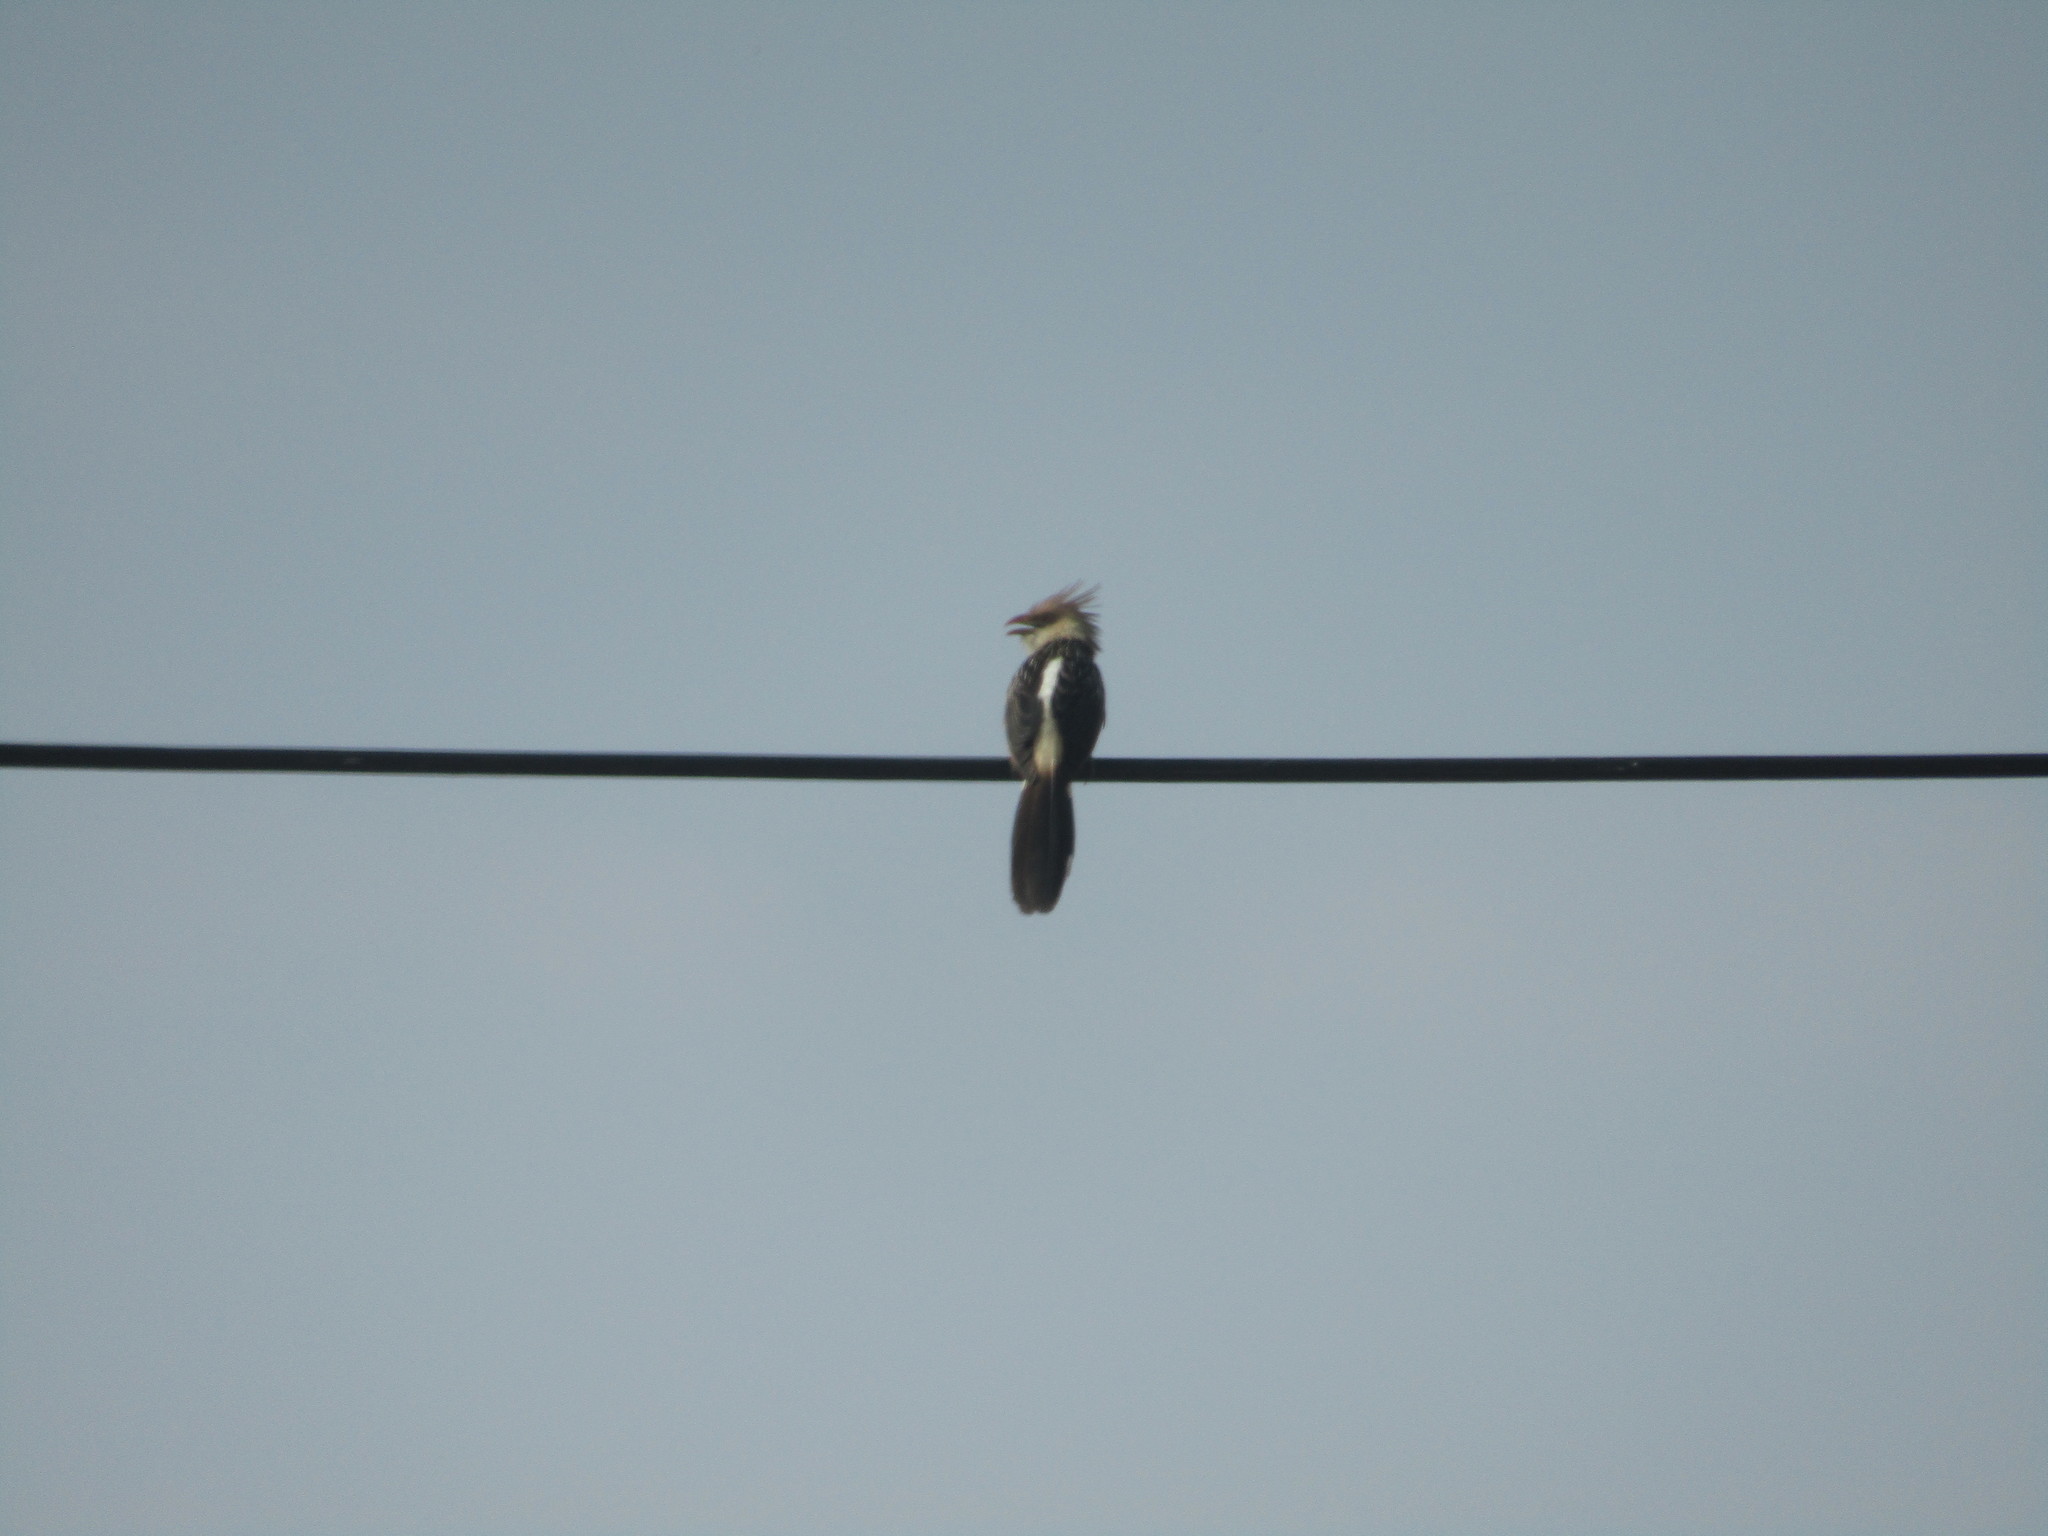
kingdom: Animalia
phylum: Chordata
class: Aves
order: Cuculiformes
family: Cuculidae
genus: Guira
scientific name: Guira guira
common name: Guira cuckoo
